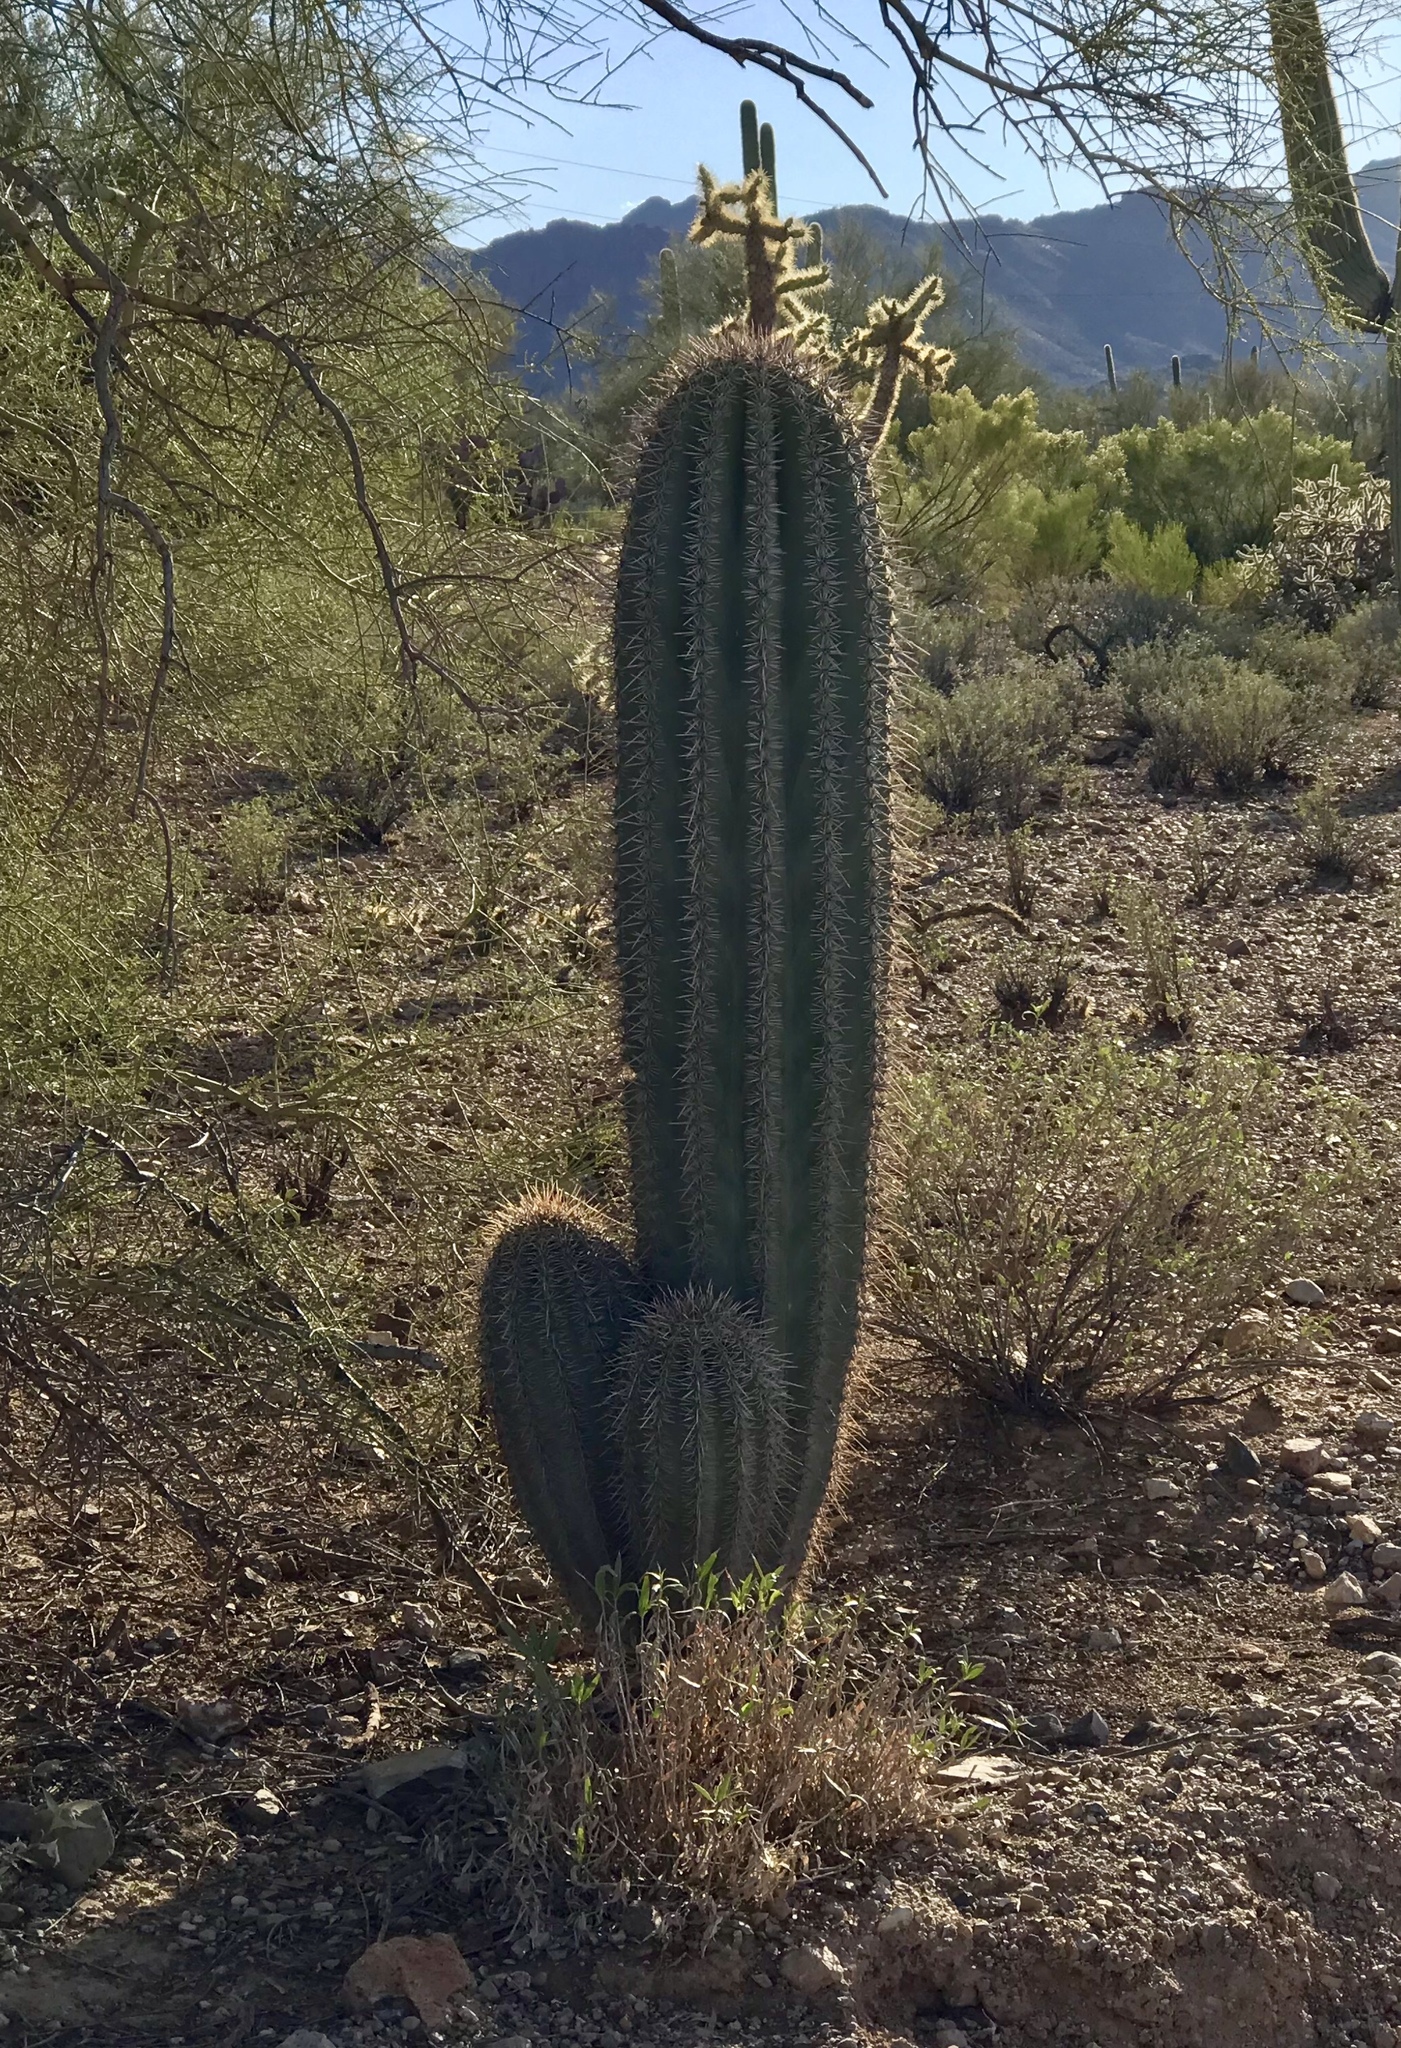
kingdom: Plantae
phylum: Tracheophyta
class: Magnoliopsida
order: Caryophyllales
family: Cactaceae
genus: Carnegiea
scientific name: Carnegiea gigantea
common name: Saguaro
